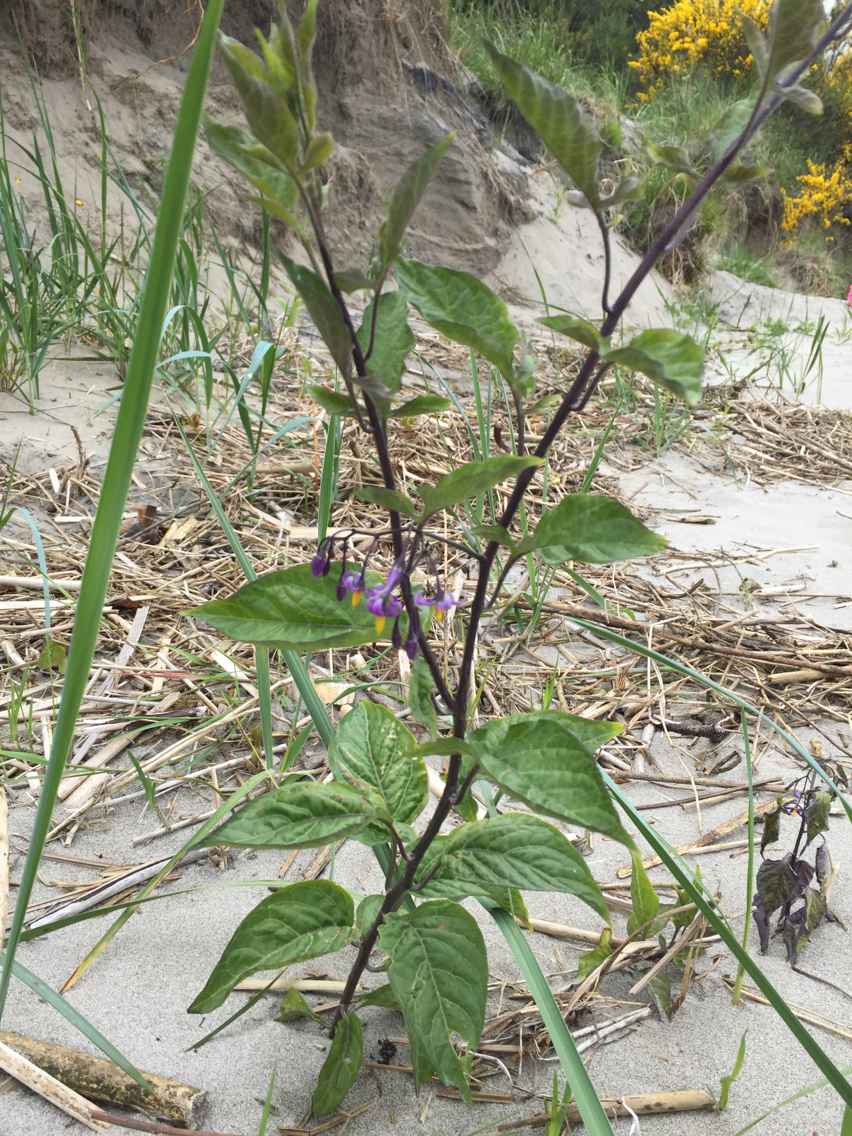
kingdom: Plantae
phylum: Tracheophyta
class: Magnoliopsida
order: Solanales
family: Solanaceae
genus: Solanum
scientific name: Solanum dulcamara
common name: Climbing nightshade
